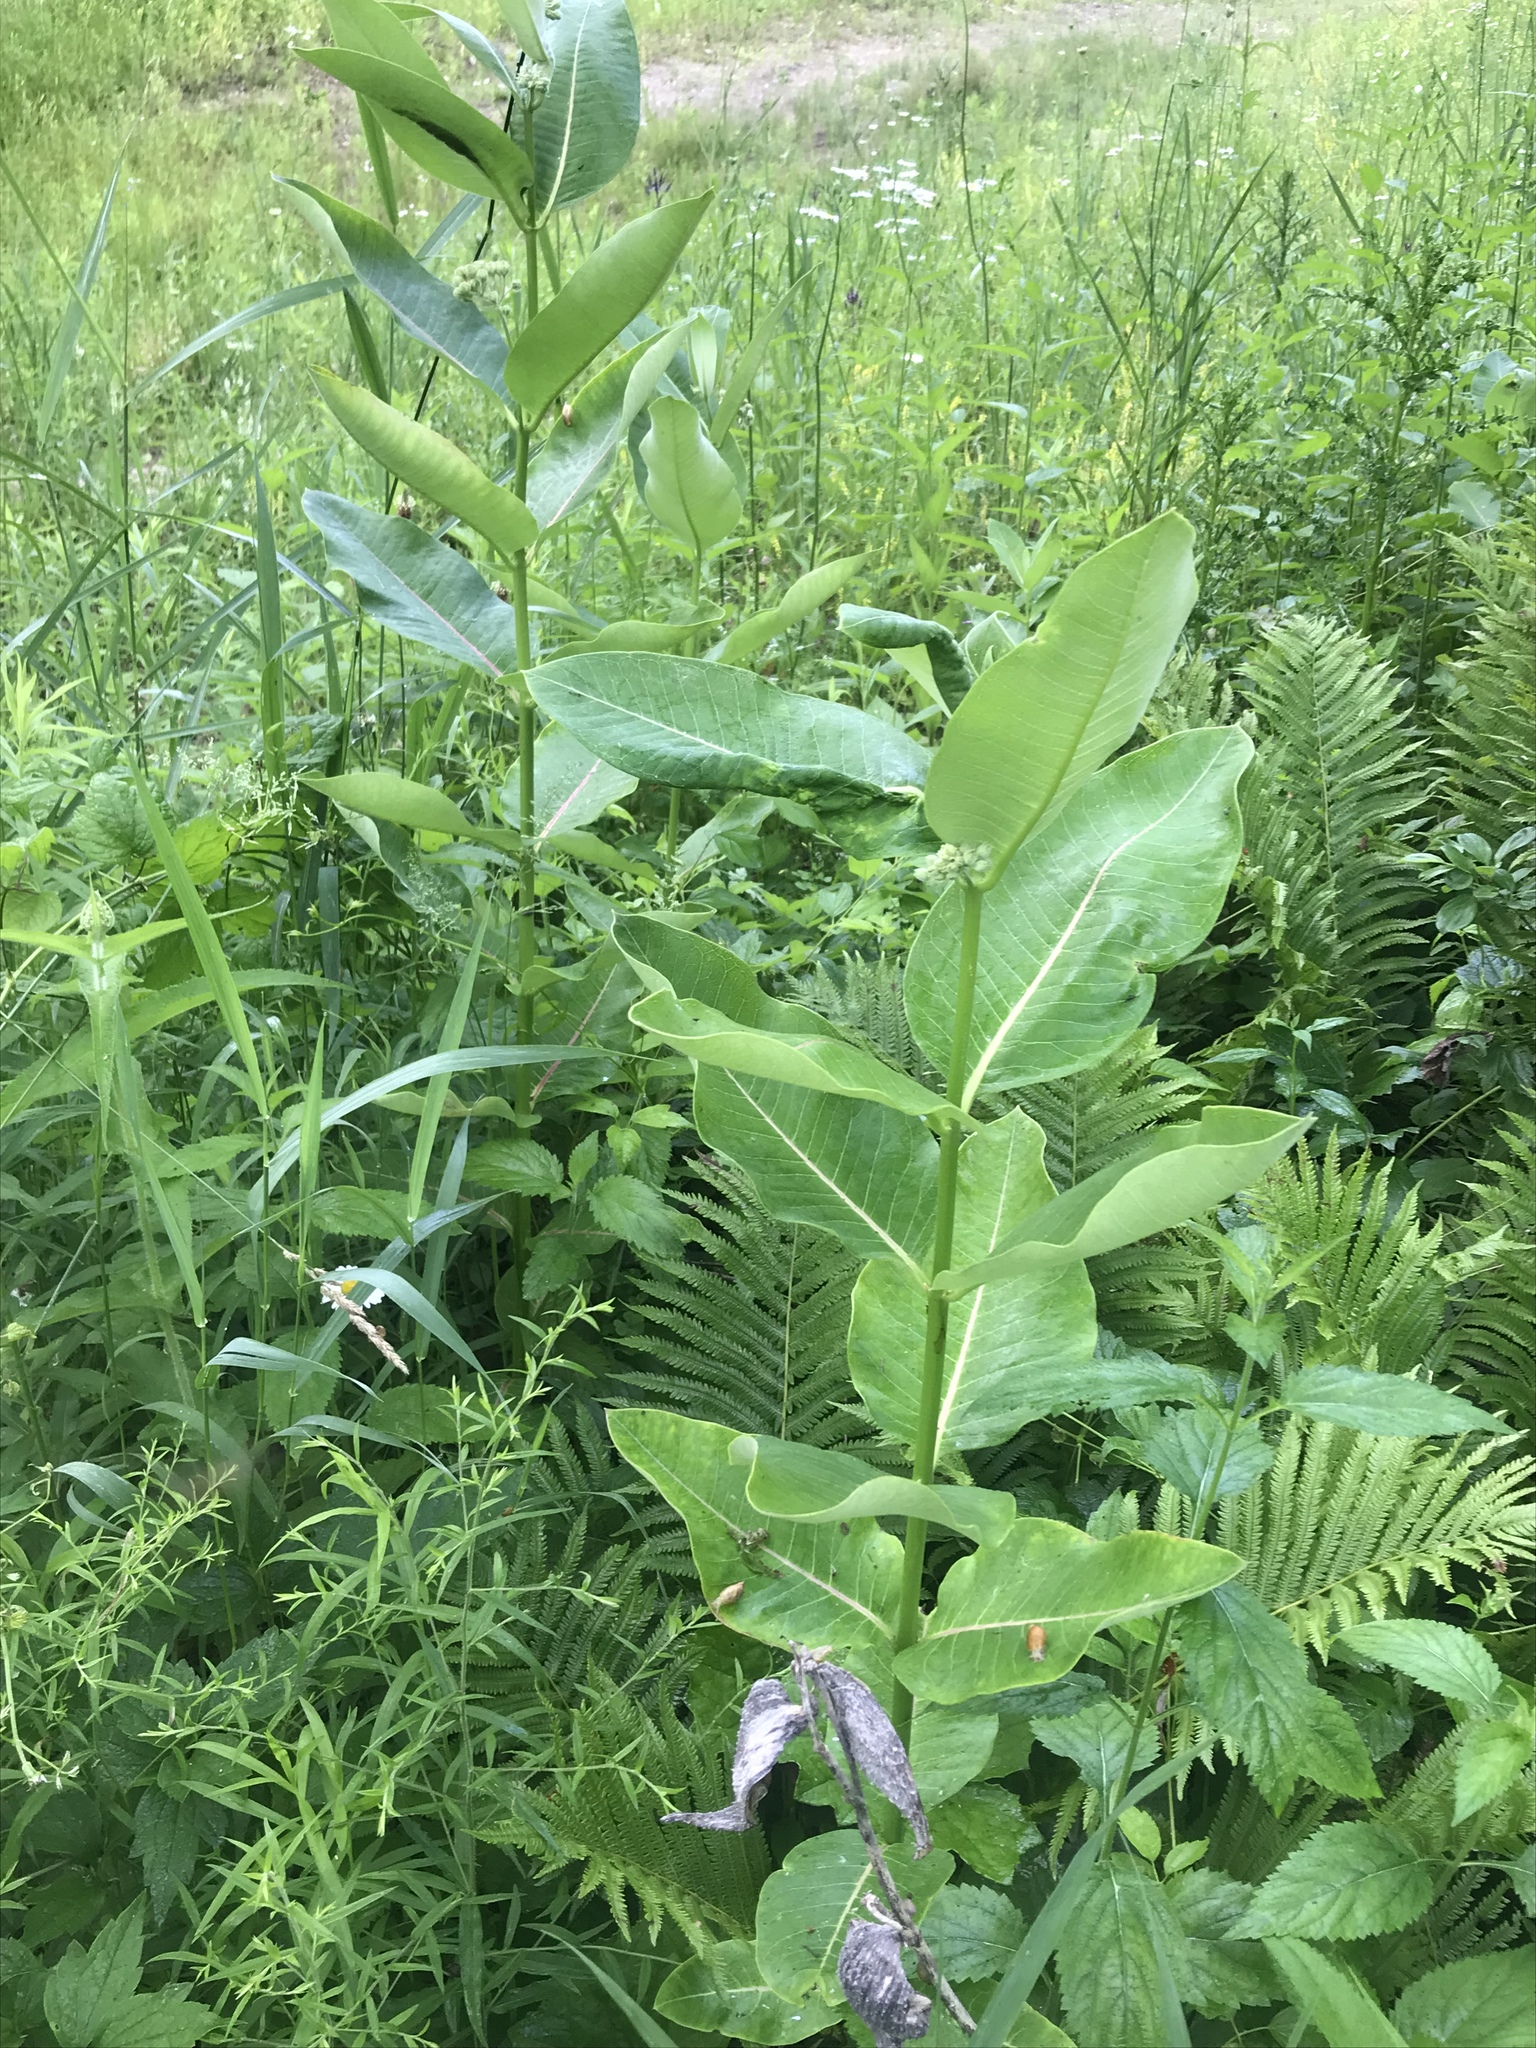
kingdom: Plantae
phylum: Tracheophyta
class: Magnoliopsida
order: Gentianales
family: Apocynaceae
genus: Asclepias
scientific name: Asclepias syriaca
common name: Common milkweed
